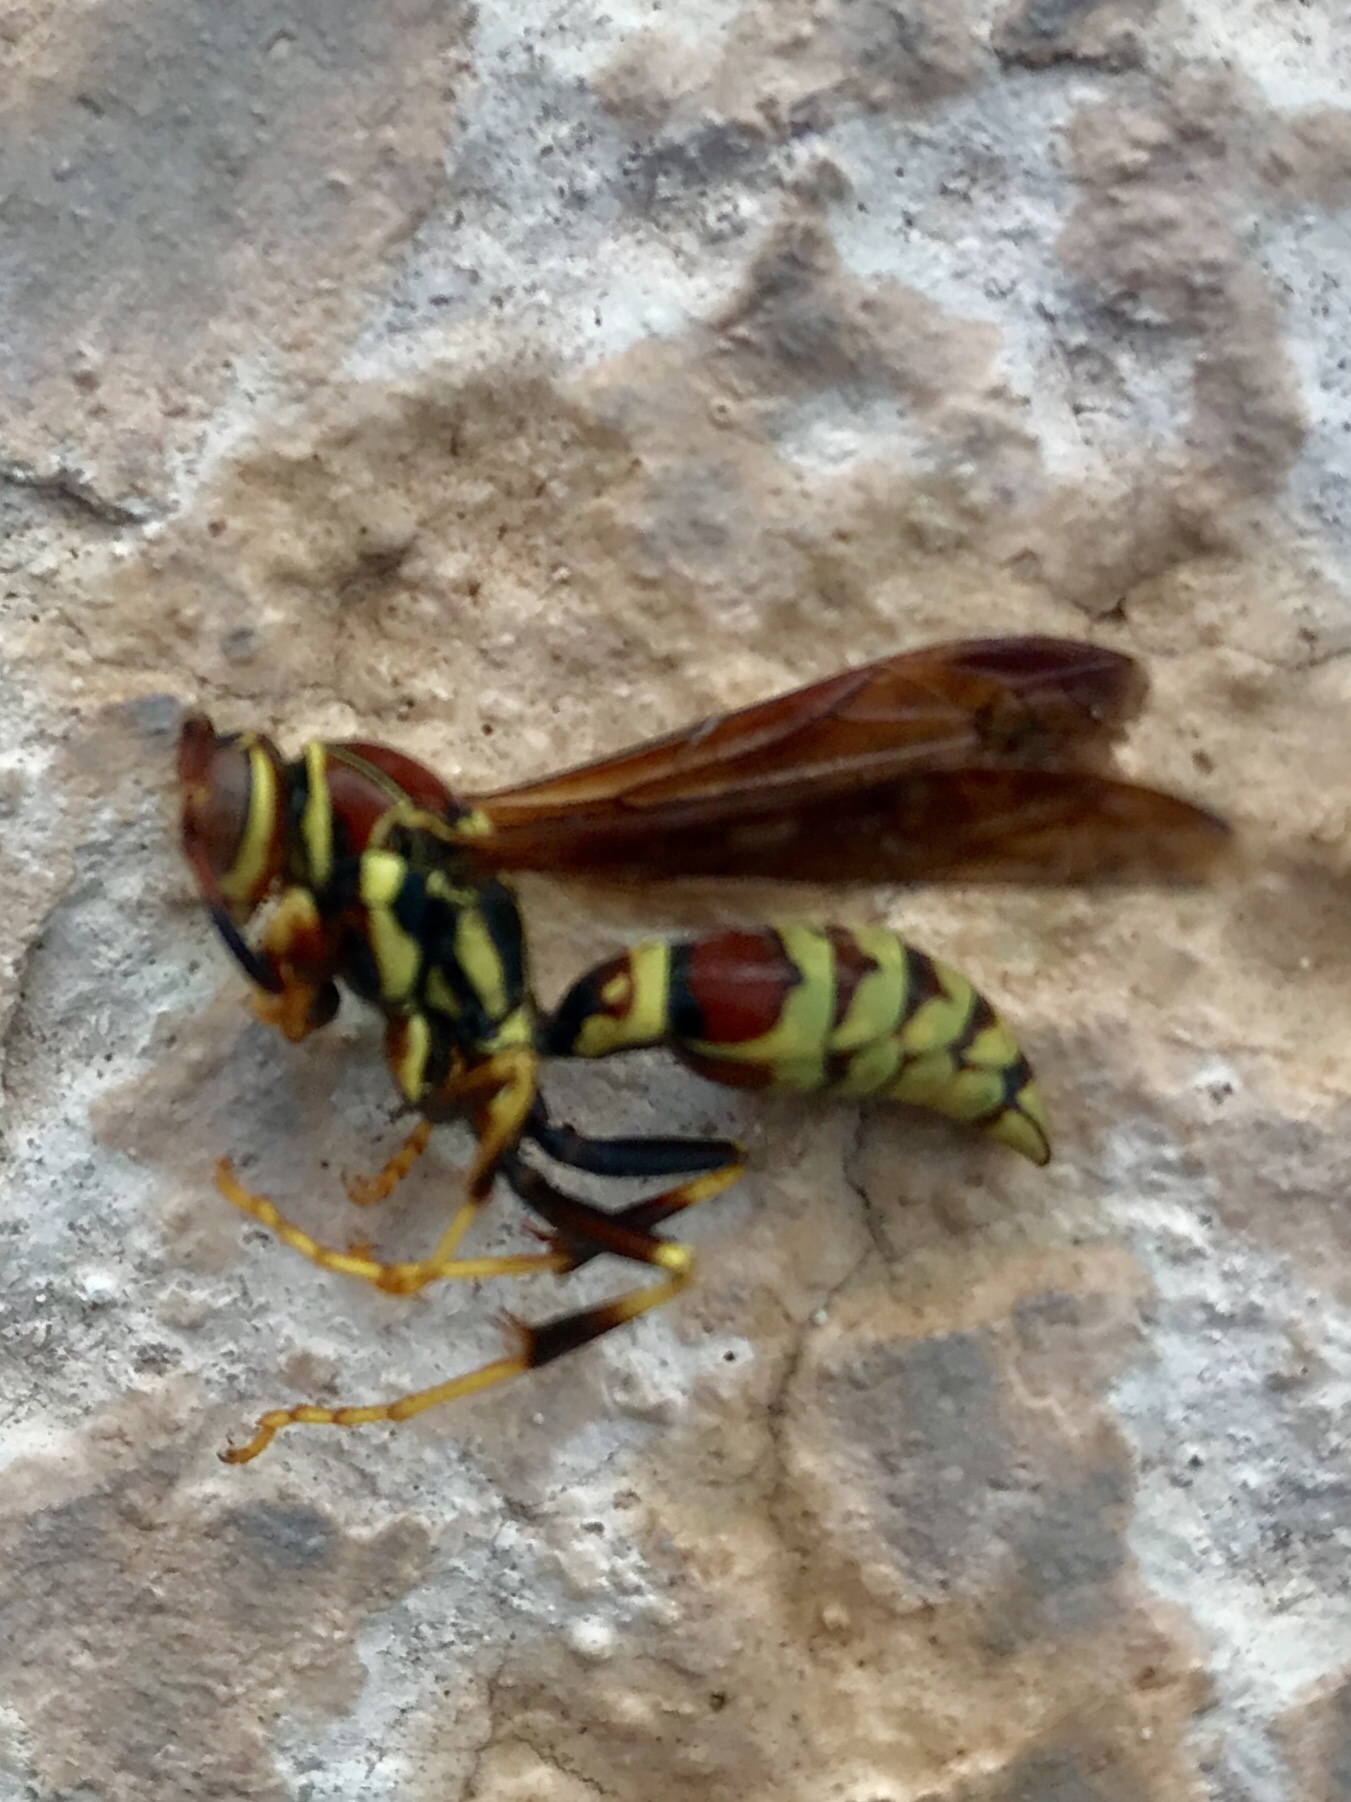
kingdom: Animalia
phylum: Arthropoda
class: Insecta
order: Hymenoptera
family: Eumenidae
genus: Polistes
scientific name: Polistes exclamans
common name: Paper wasp
